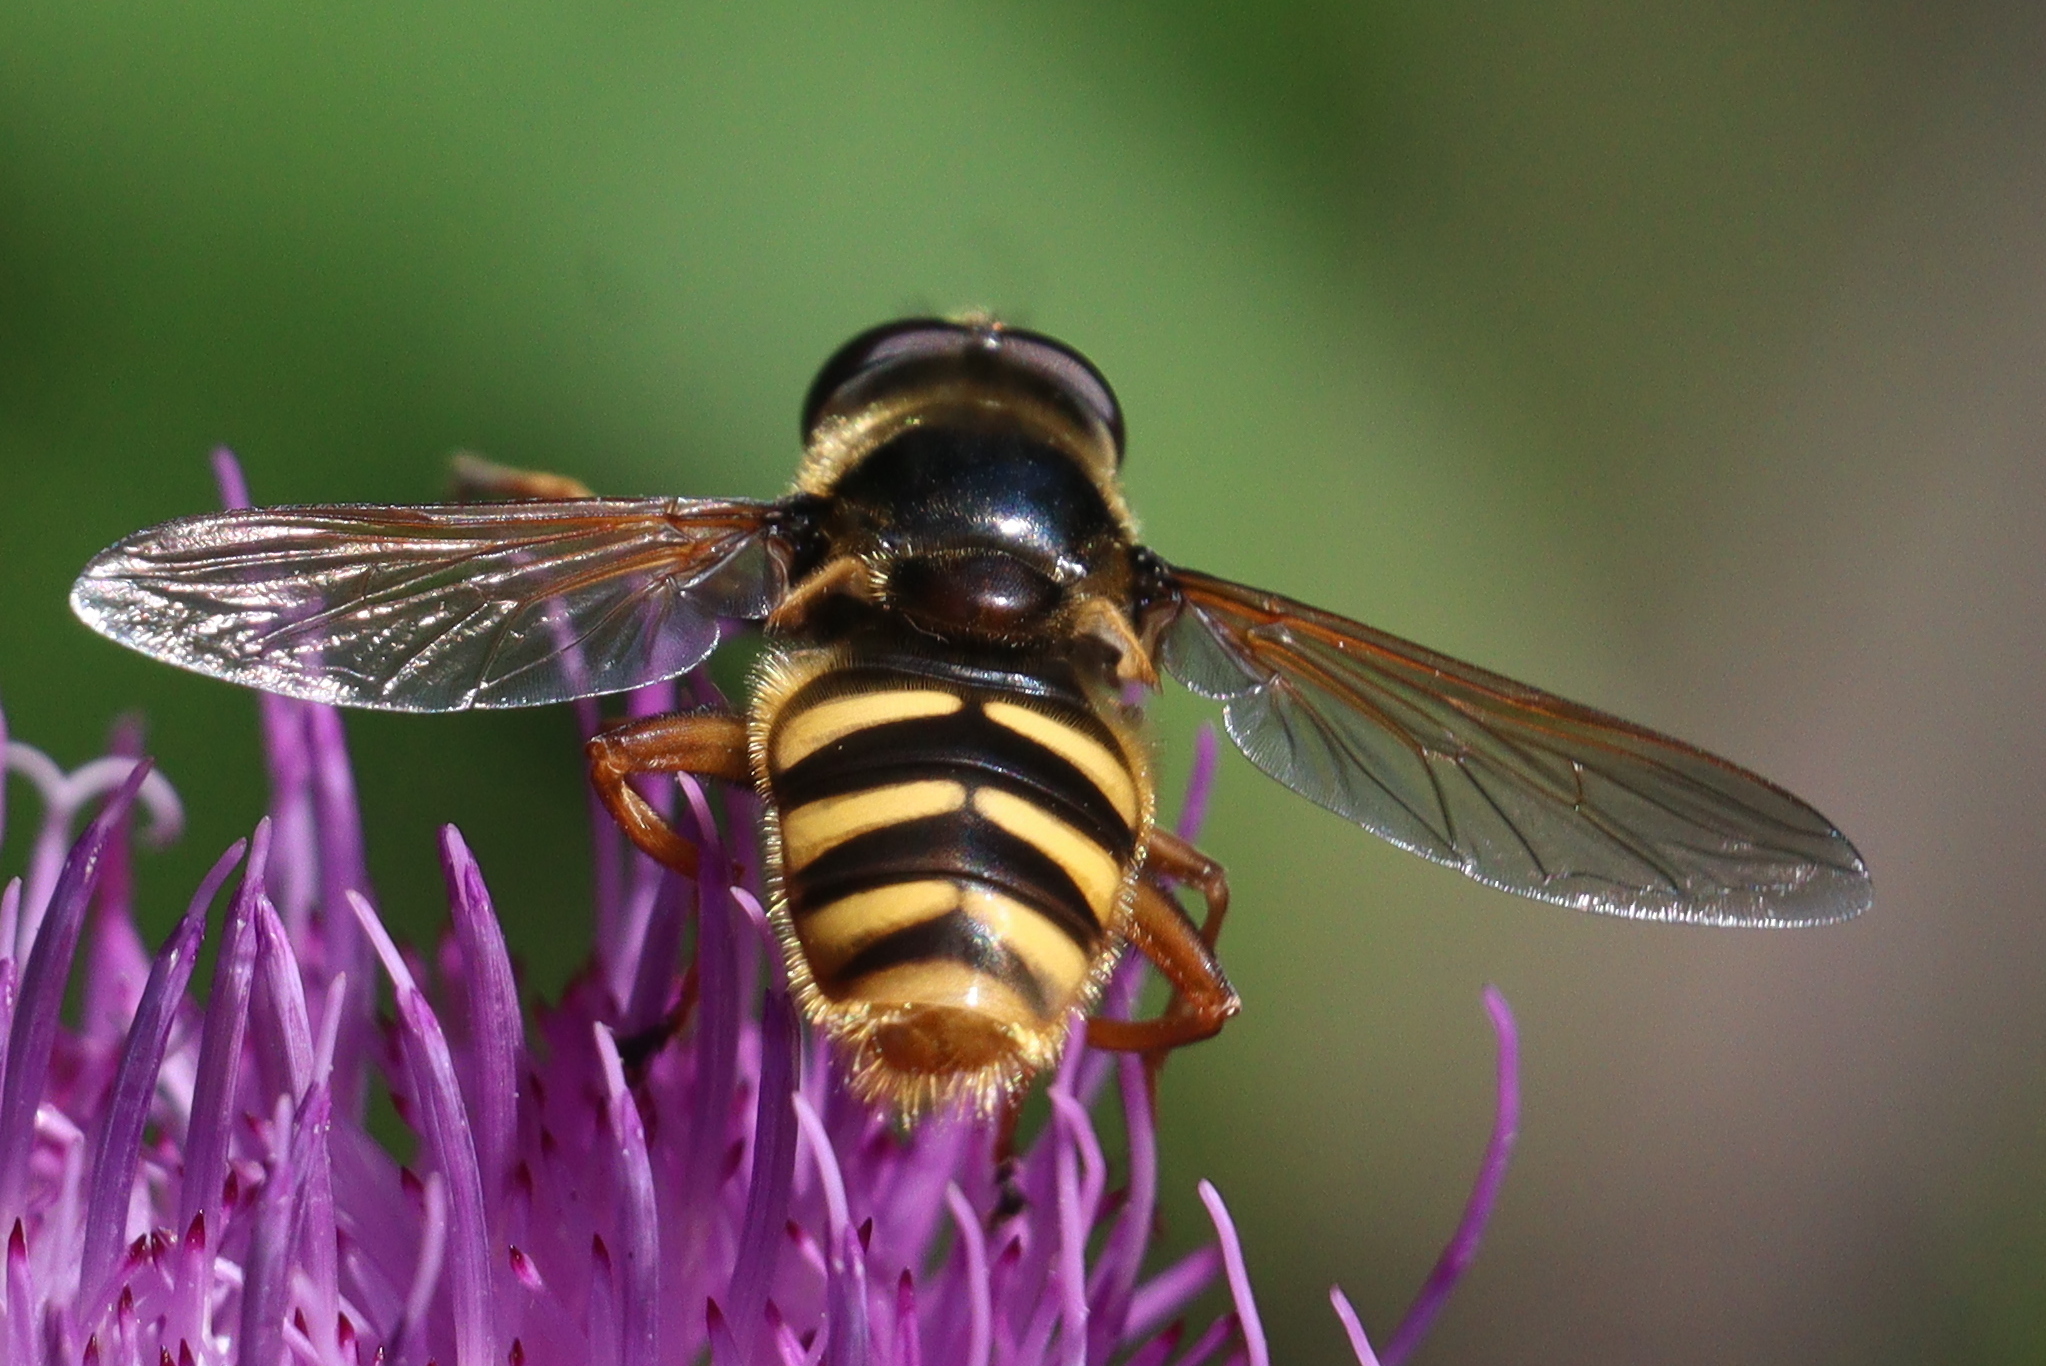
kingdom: Animalia
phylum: Arthropoda
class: Insecta
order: Diptera
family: Syrphidae
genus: Sericomyia
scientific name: Sericomyia silentis
